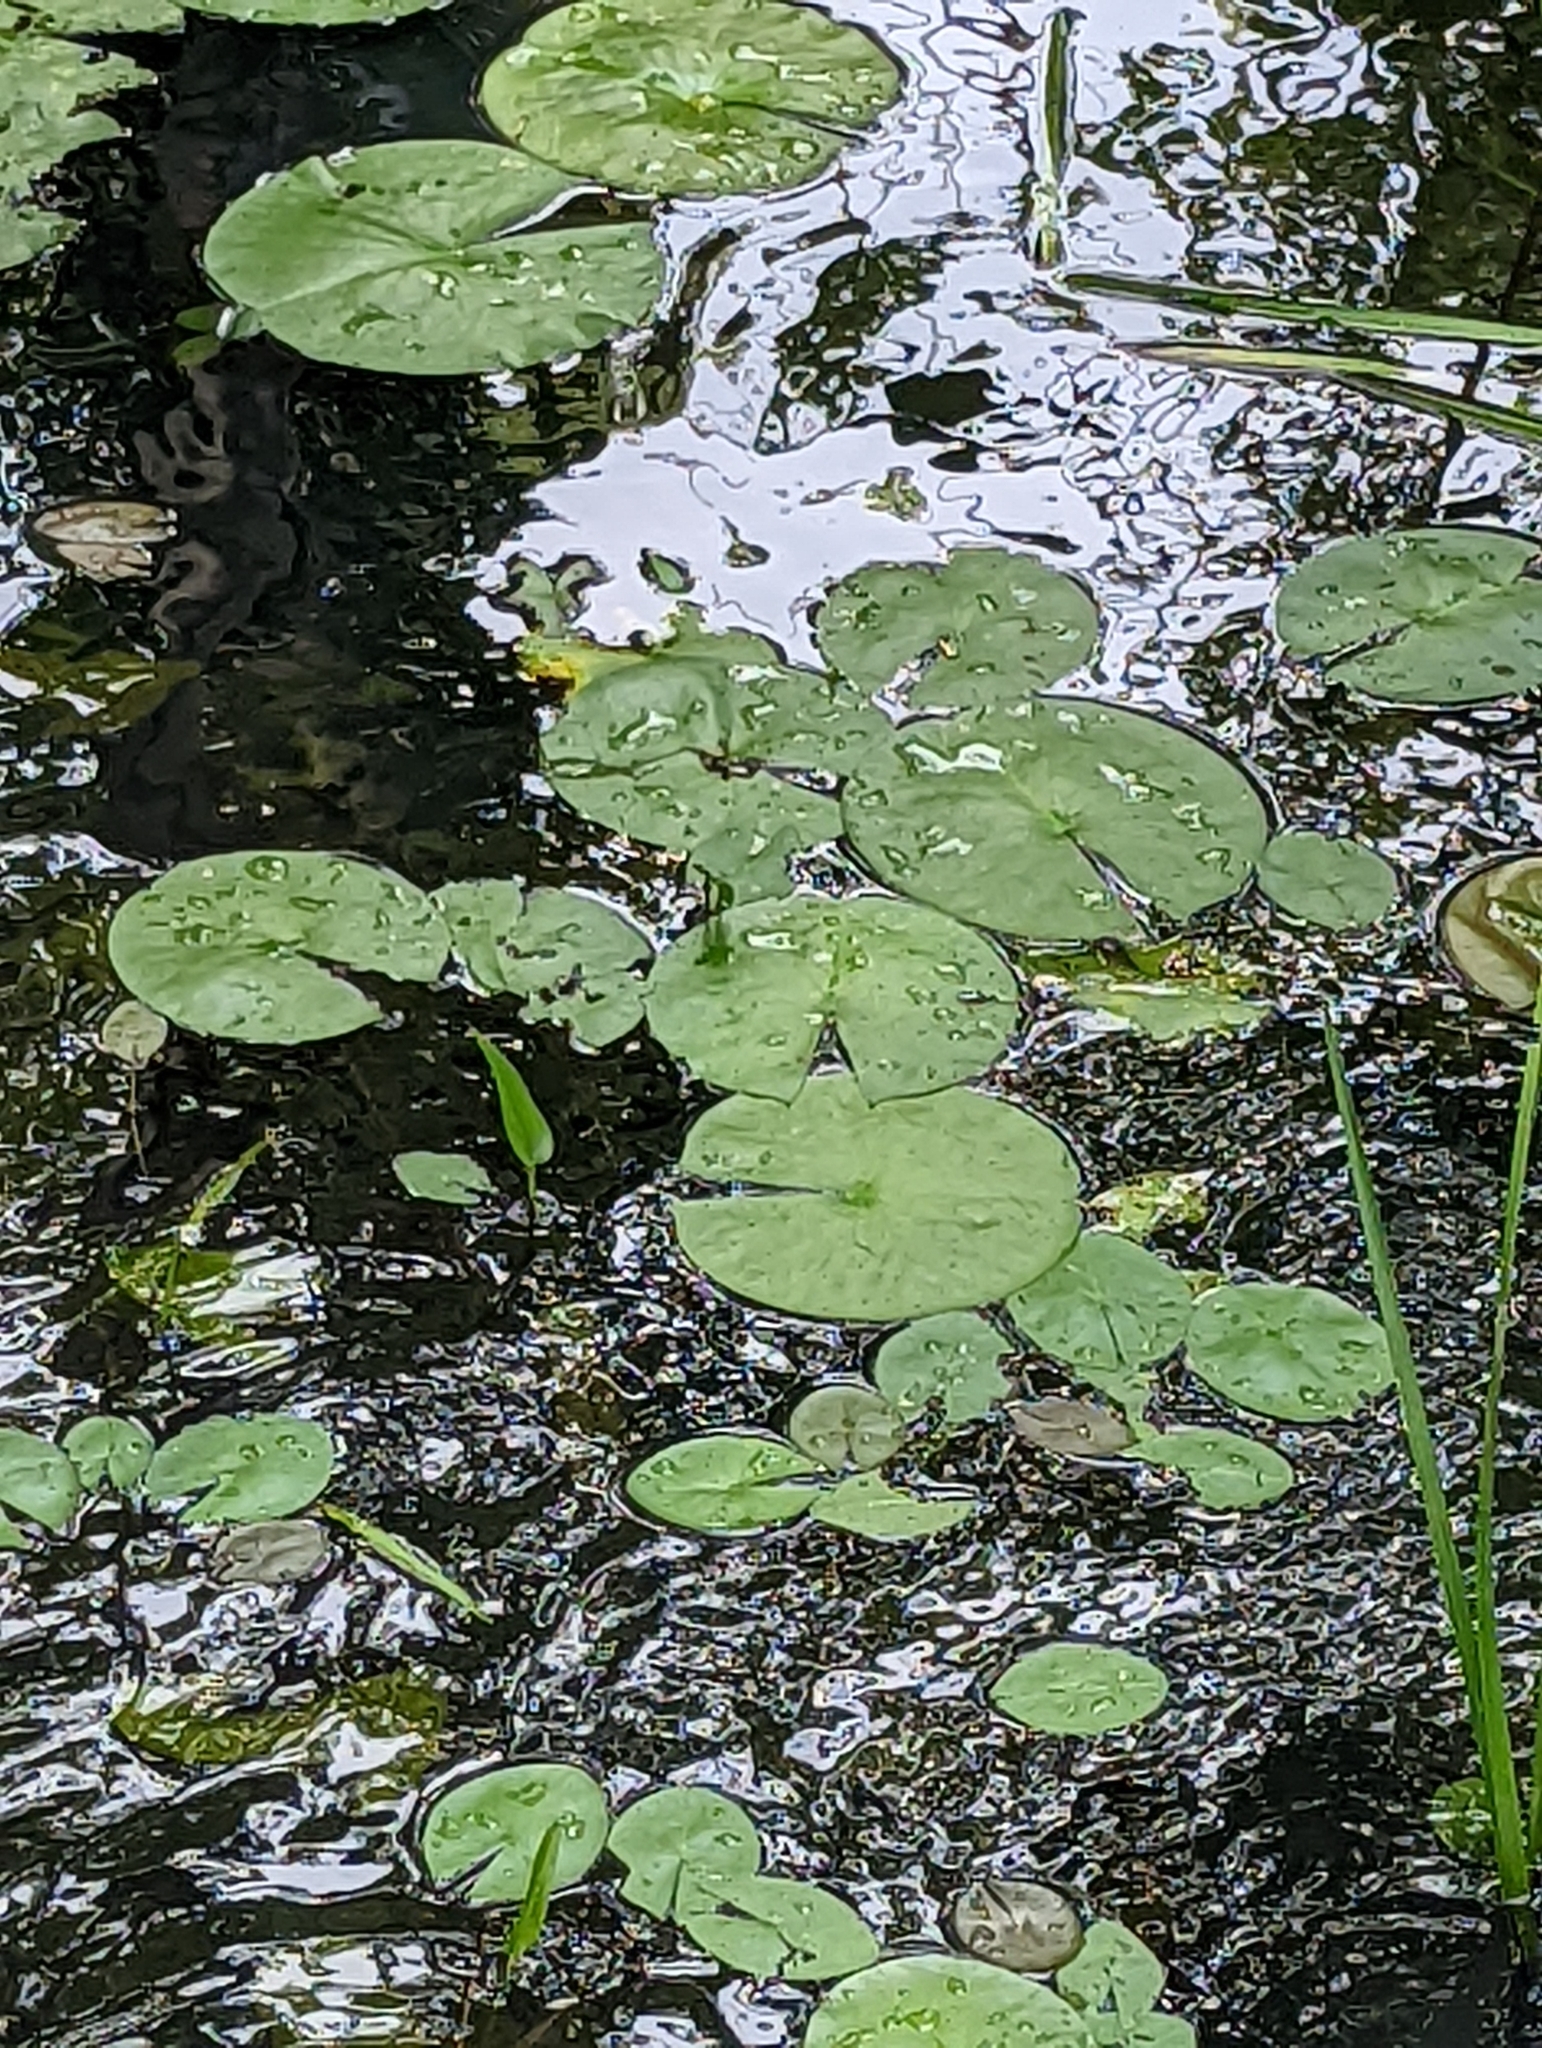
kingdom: Plantae
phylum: Tracheophyta
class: Magnoliopsida
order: Nymphaeales
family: Nymphaeaceae
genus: Nymphaea
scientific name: Nymphaea odorata
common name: Fragrant water-lily
